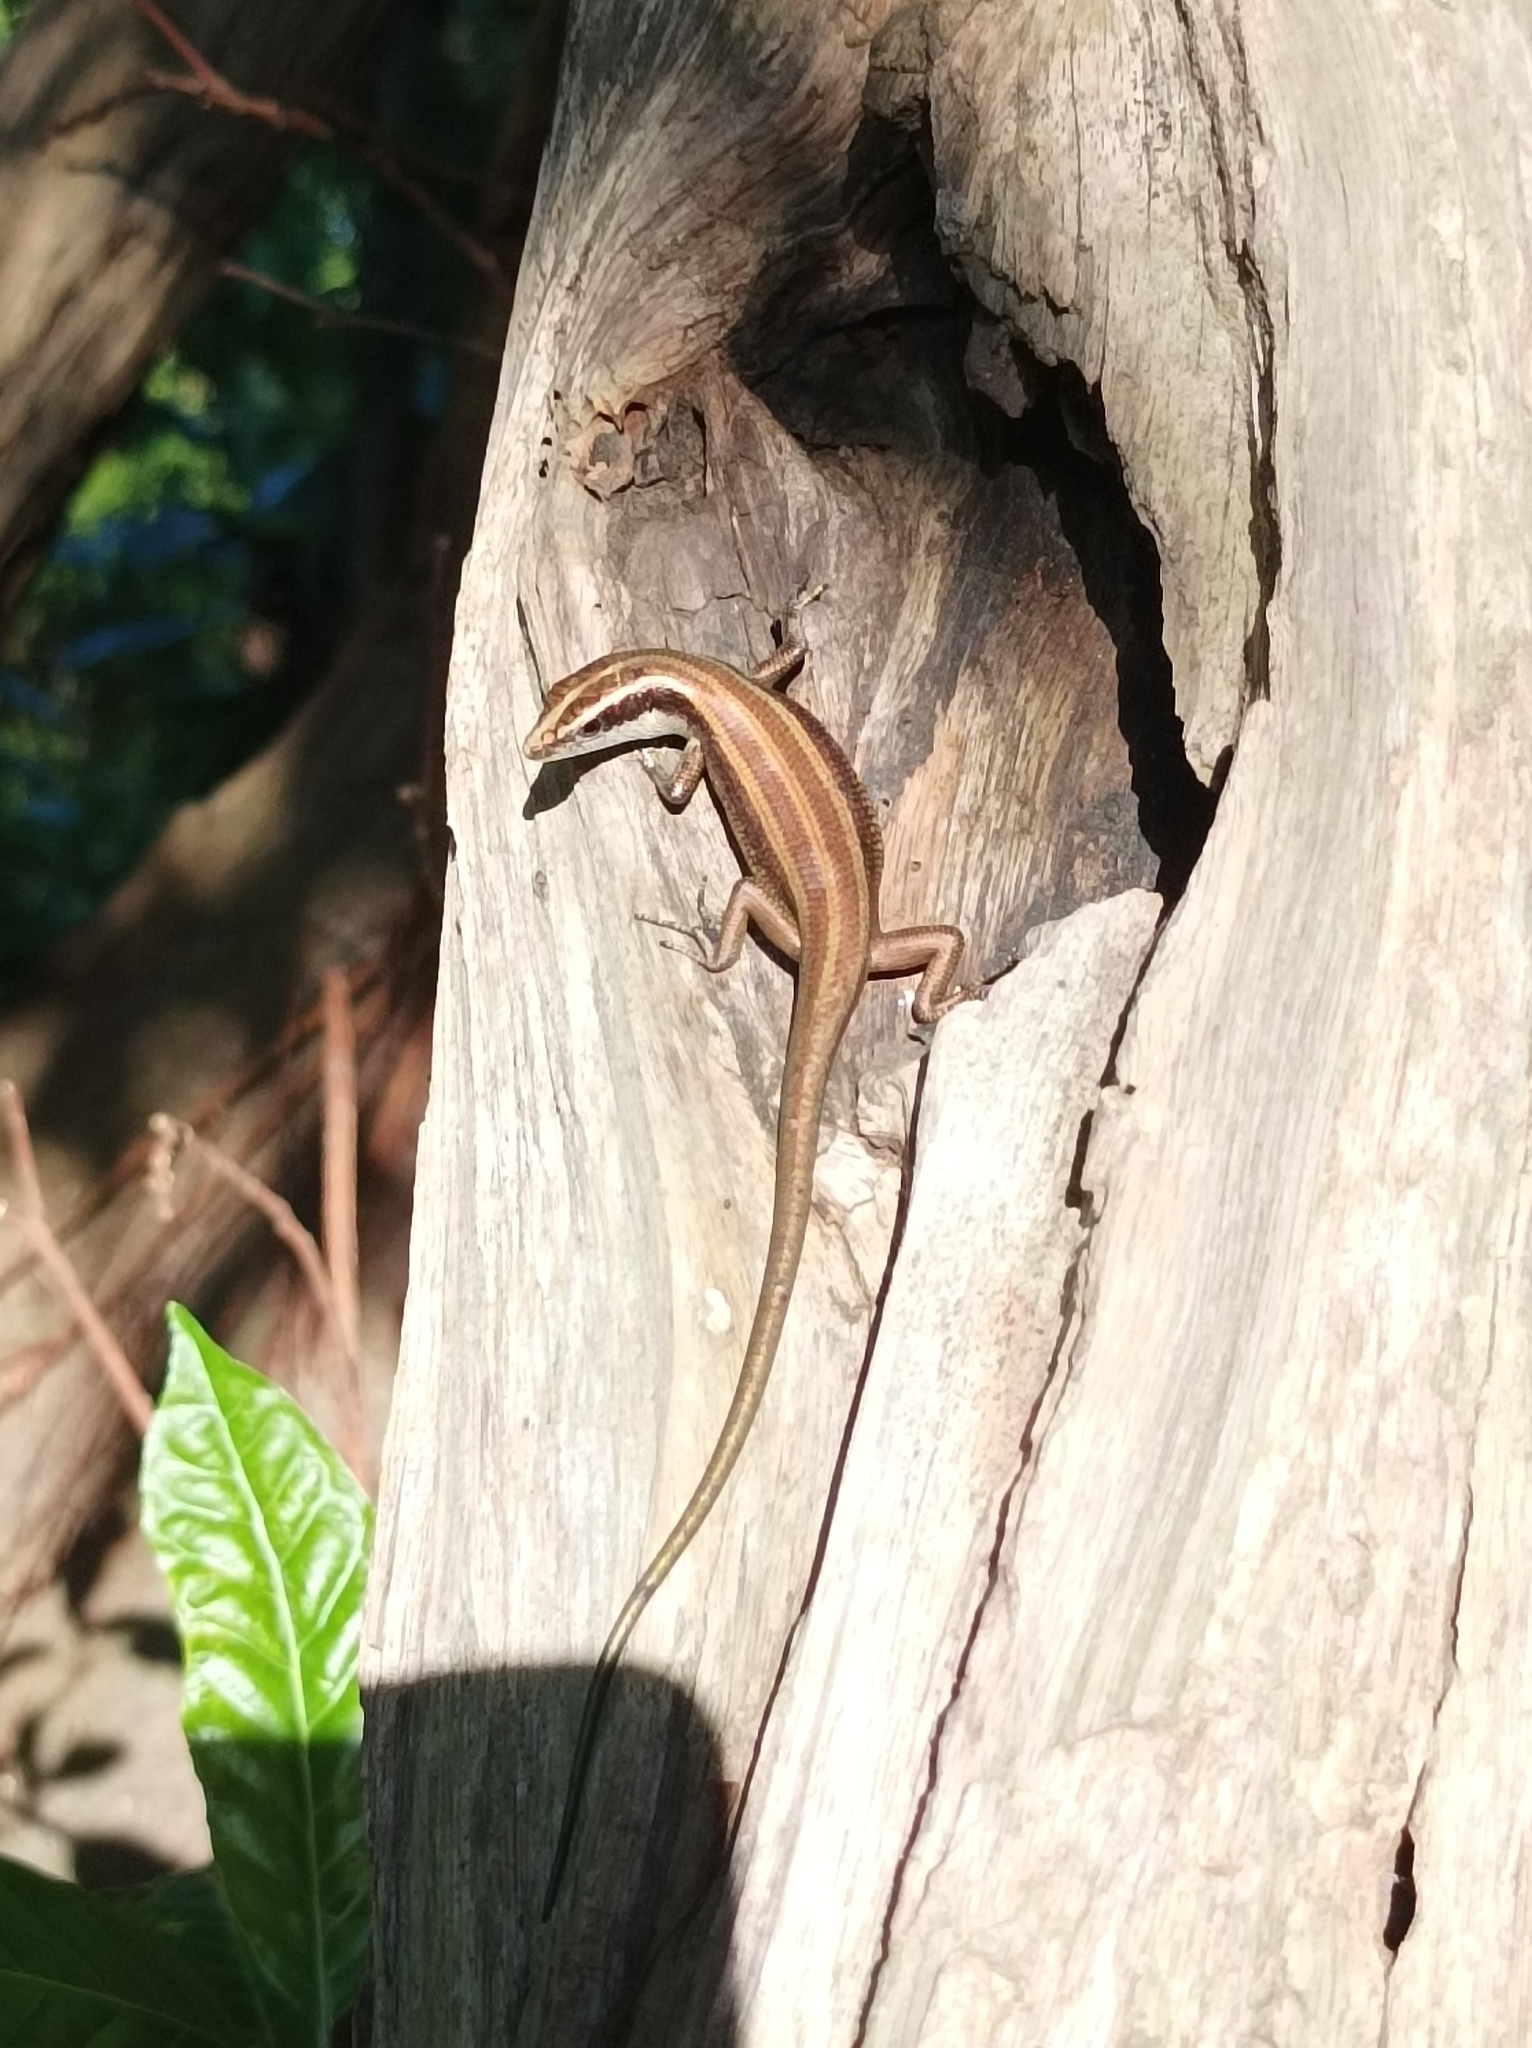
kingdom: Animalia
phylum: Chordata
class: Squamata
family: Scincidae
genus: Emoia
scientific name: Emoia impar
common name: Azure-tailed skink
